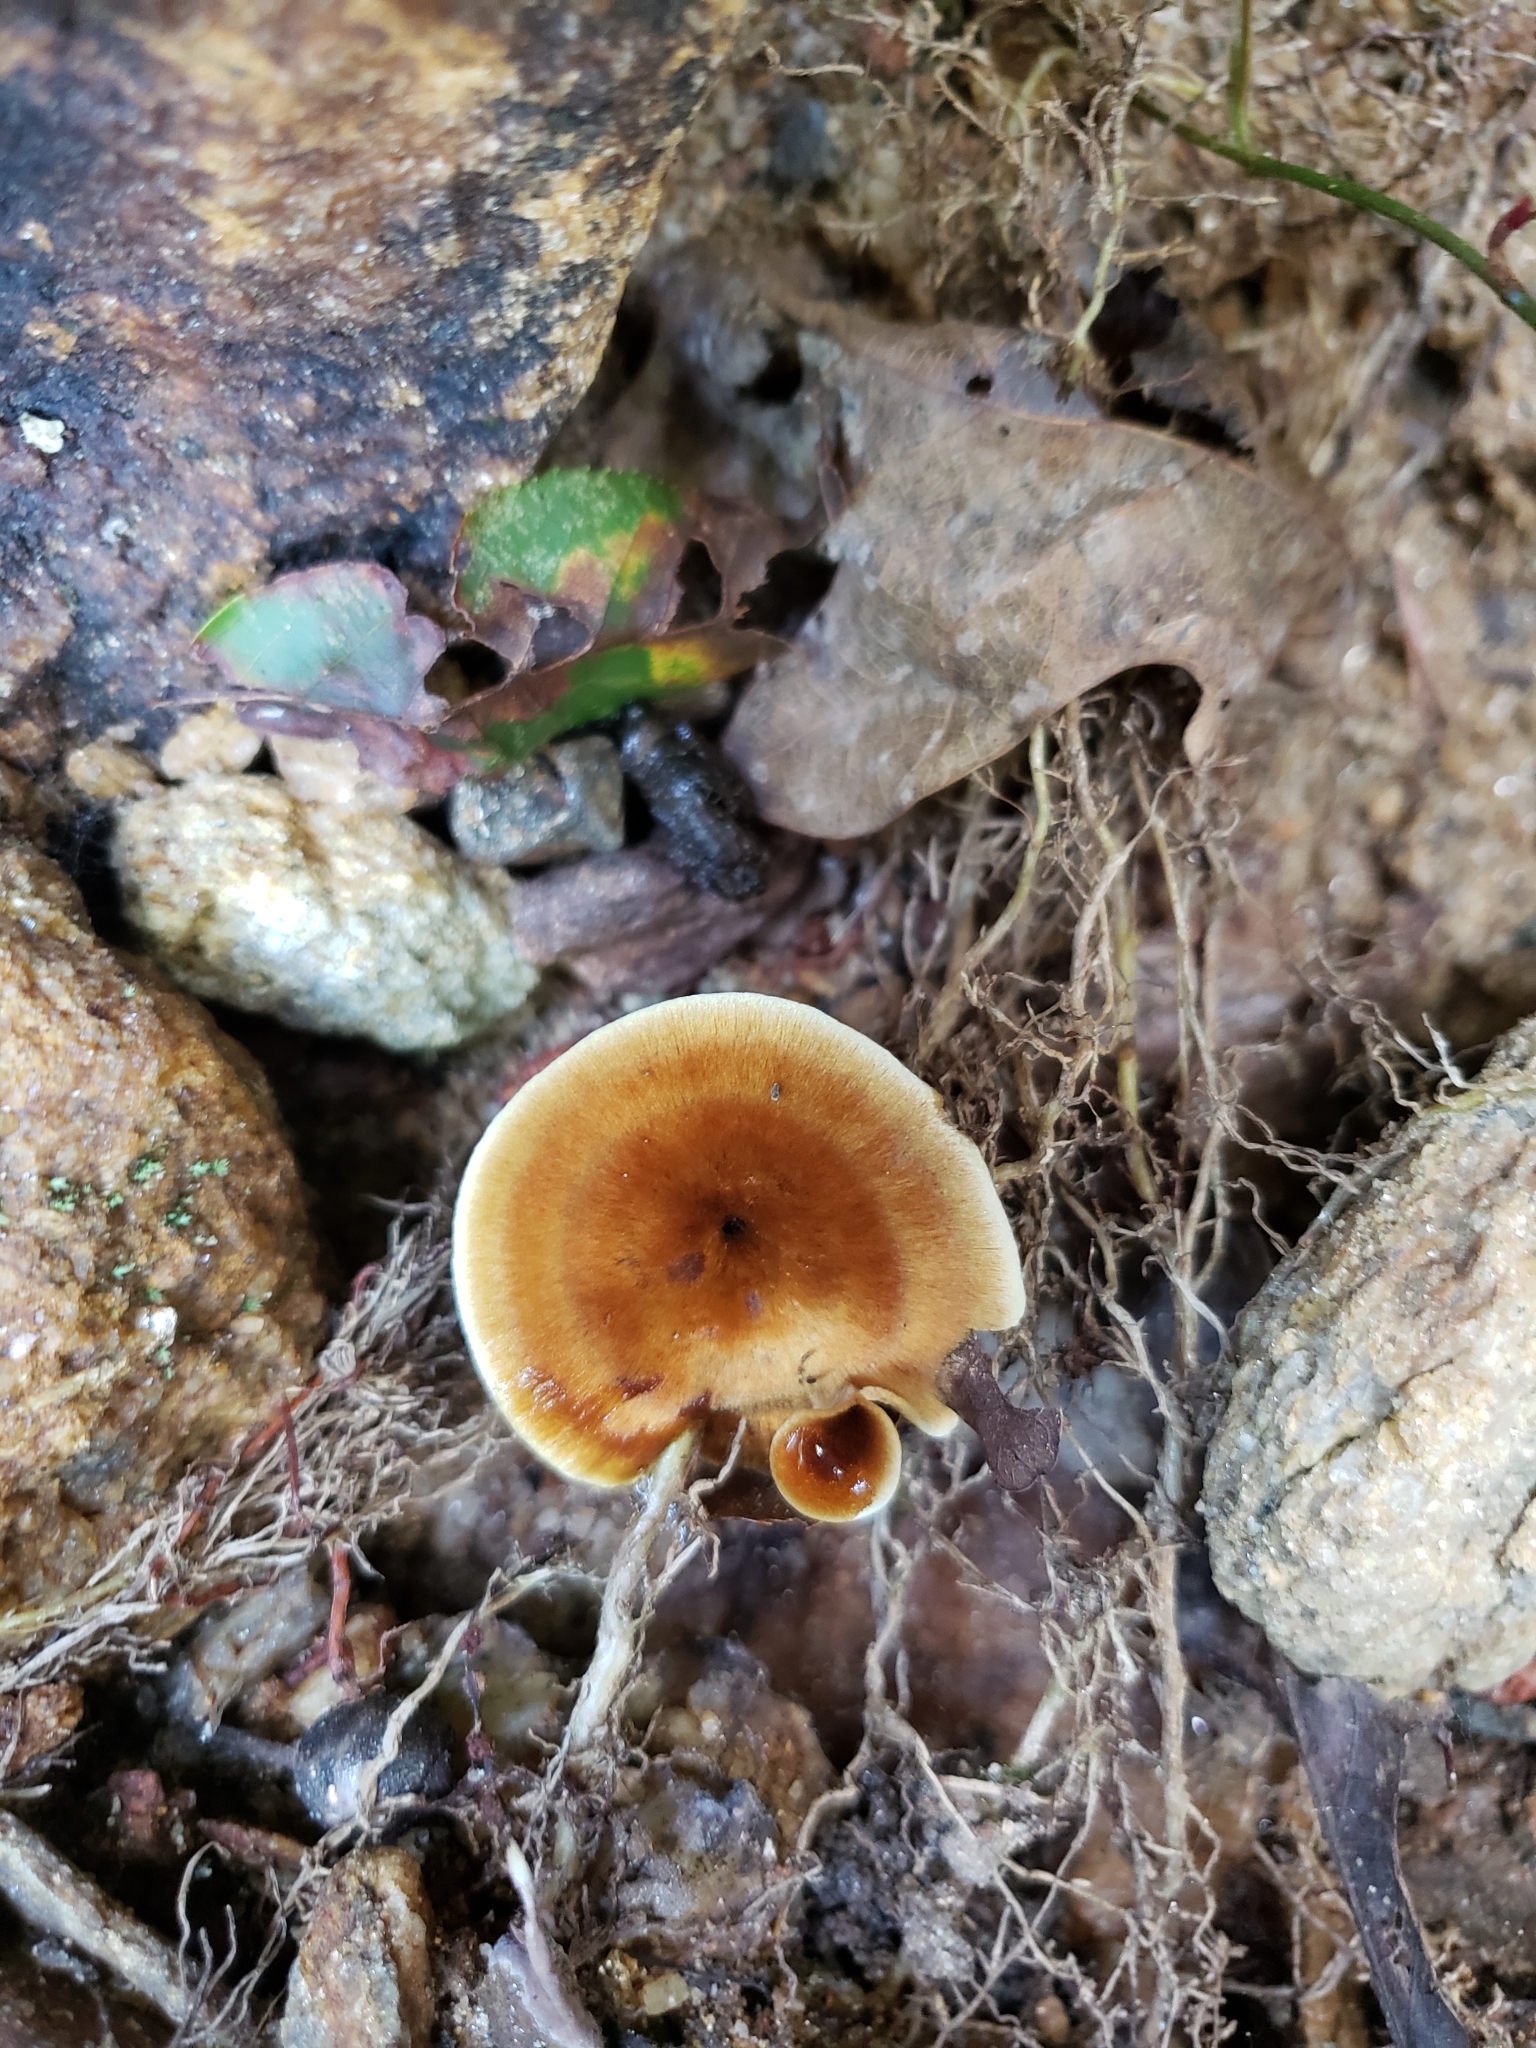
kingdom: Fungi
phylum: Basidiomycota
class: Agaricomycetes
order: Hymenochaetales
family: Hymenochaetaceae
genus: Coltricia
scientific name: Coltricia cinnamomea
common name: Shiny cinnamon polypore
